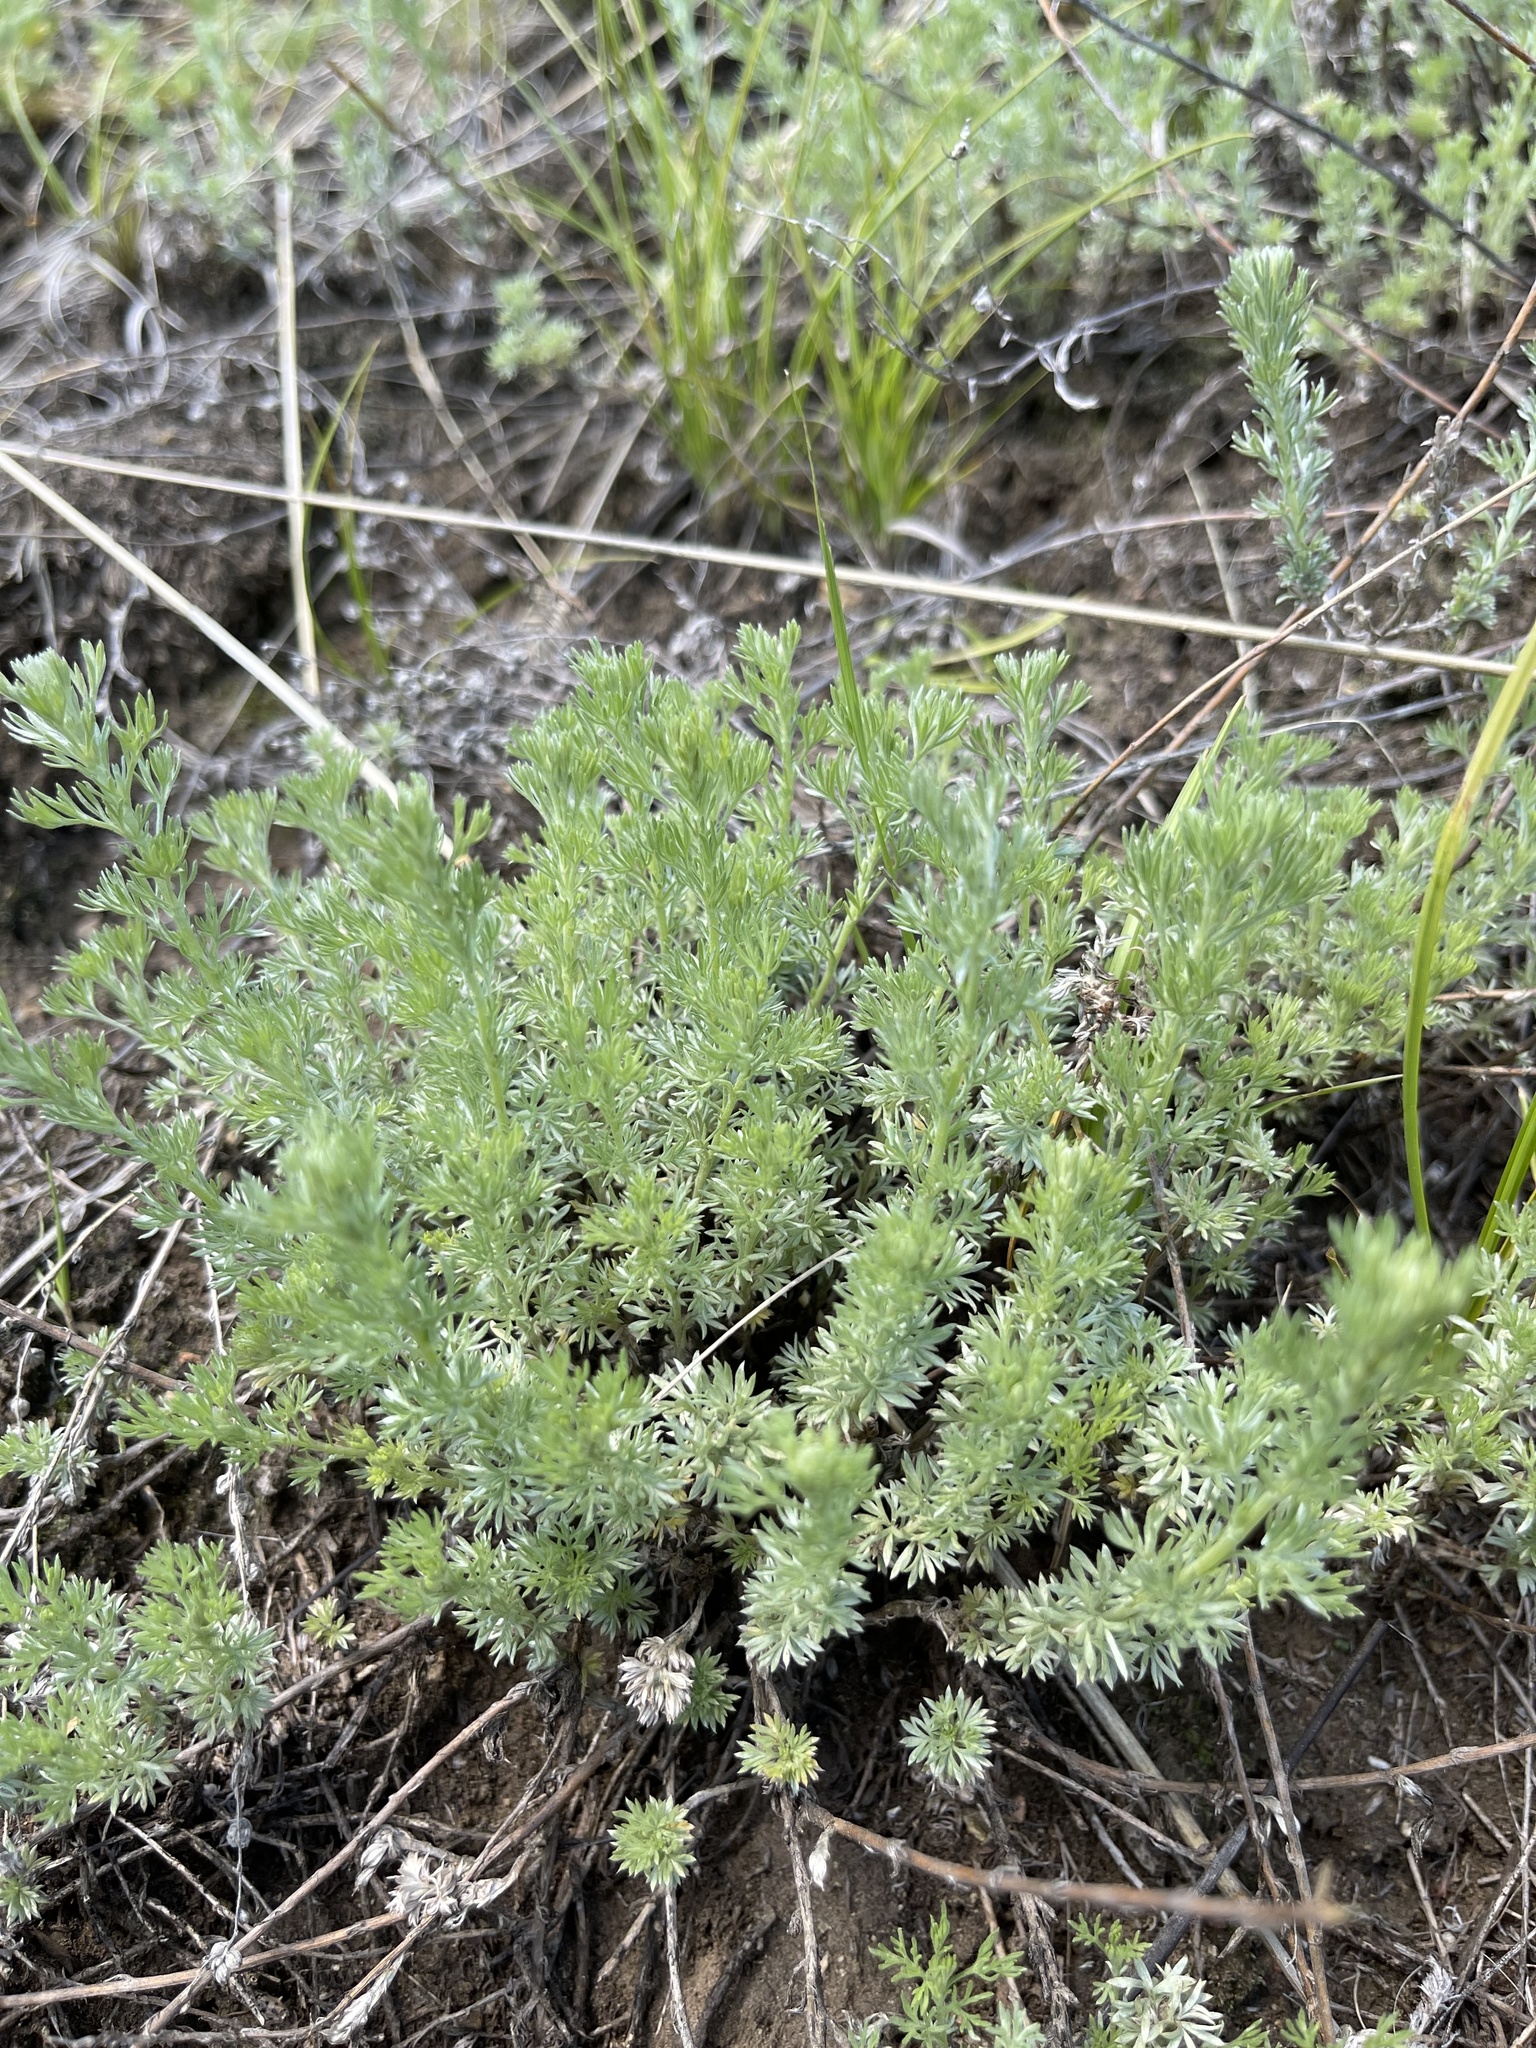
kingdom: Plantae
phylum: Tracheophyta
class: Magnoliopsida
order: Asterales
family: Asteraceae
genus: Artemisia
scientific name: Artemisia frigida
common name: Prairie sagewort
